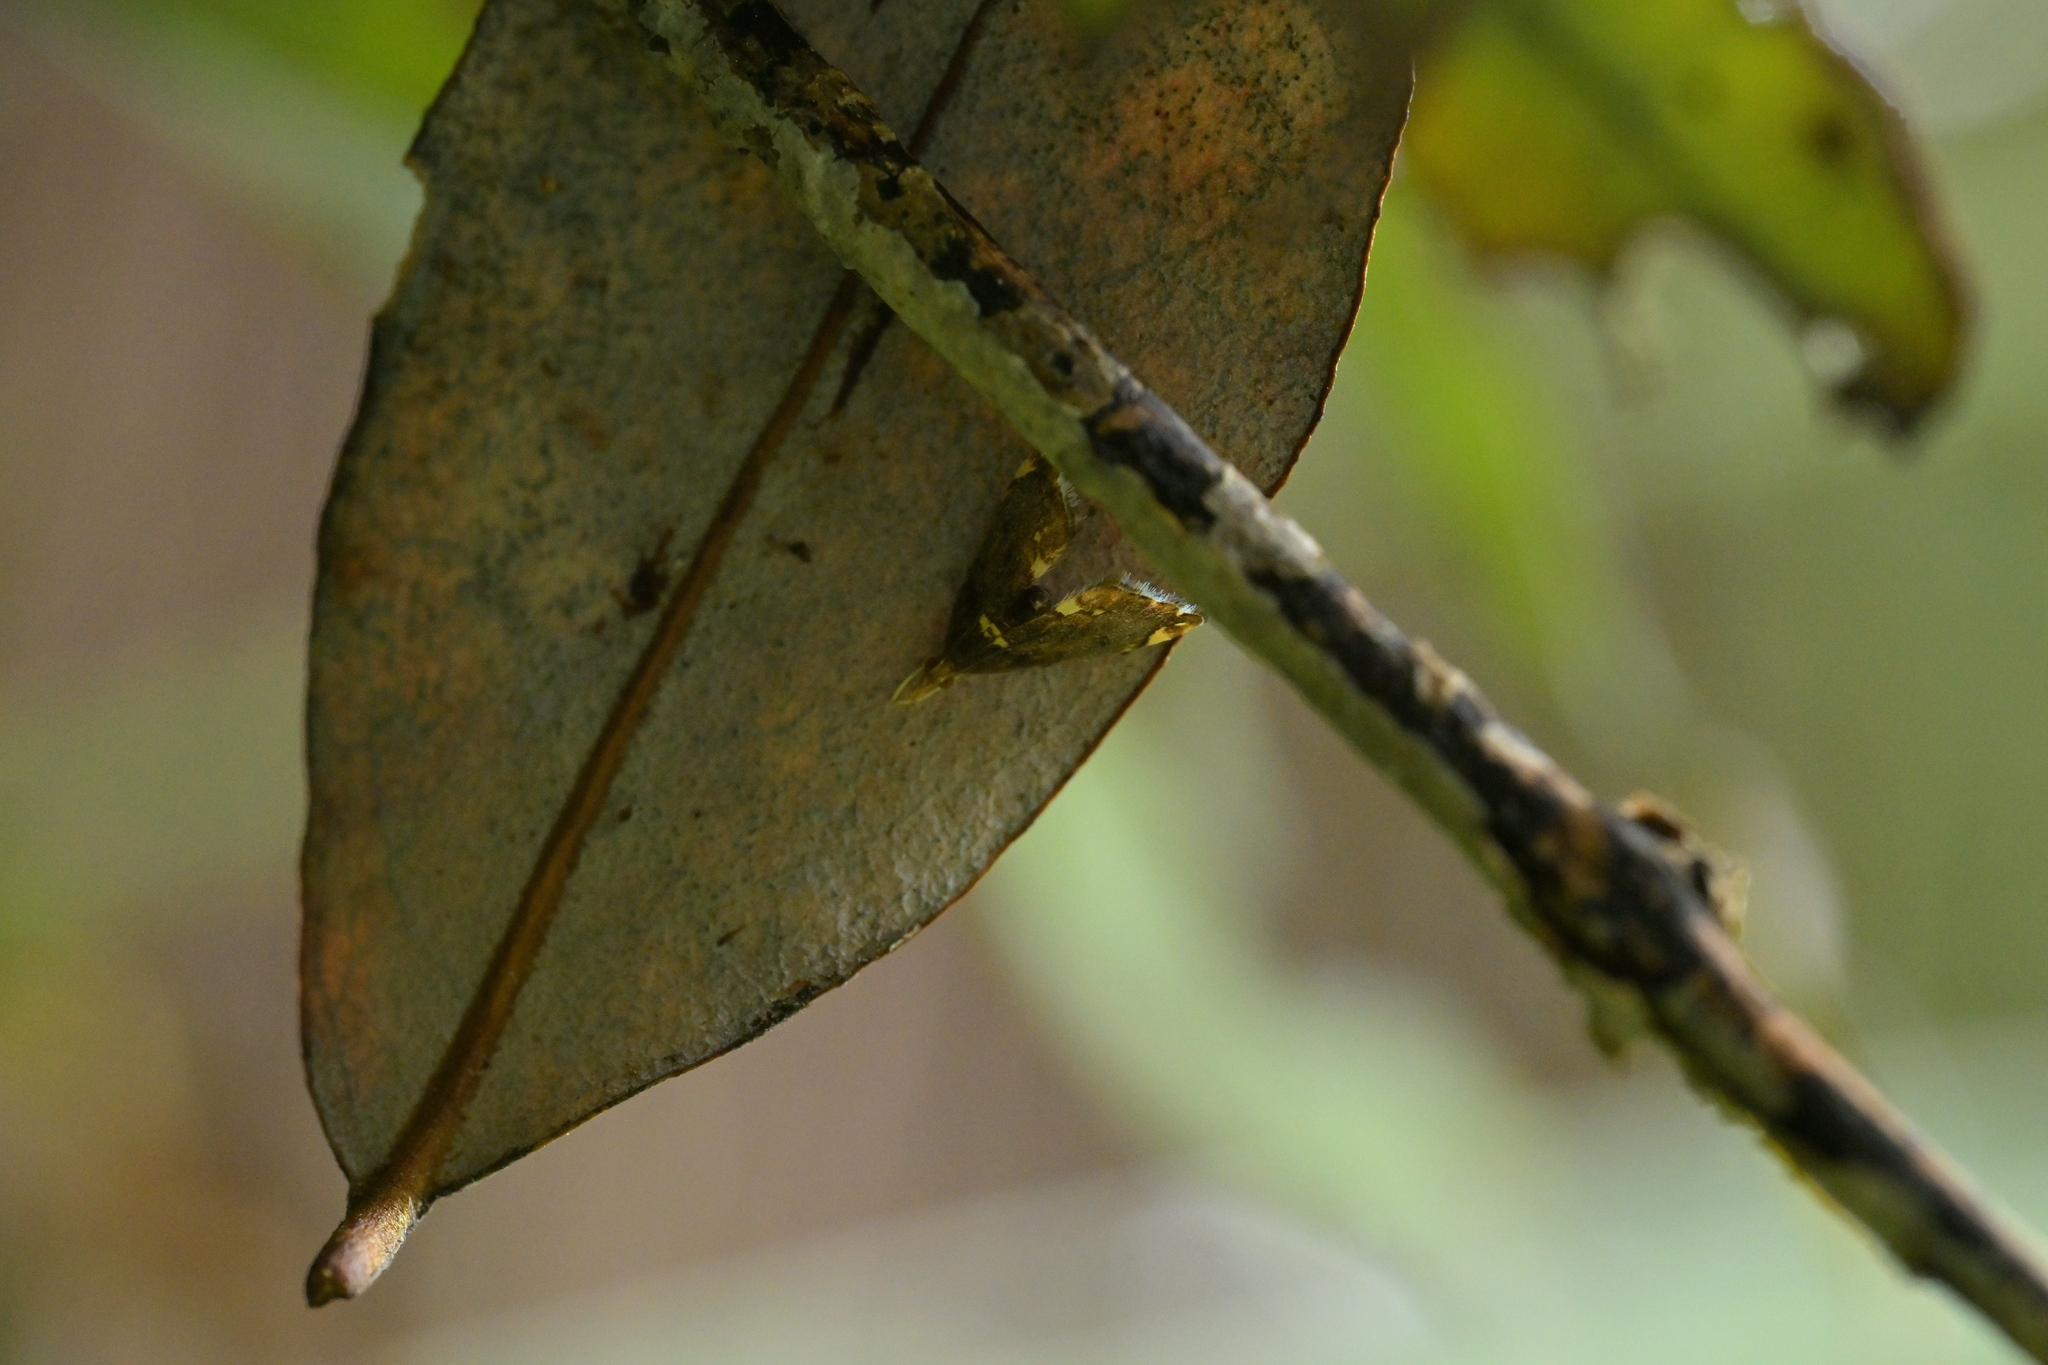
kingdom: Animalia
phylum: Arthropoda
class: Insecta
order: Lepidoptera
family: Crambidae
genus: Glaucocharis
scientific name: Glaucocharis pyrsophanes
